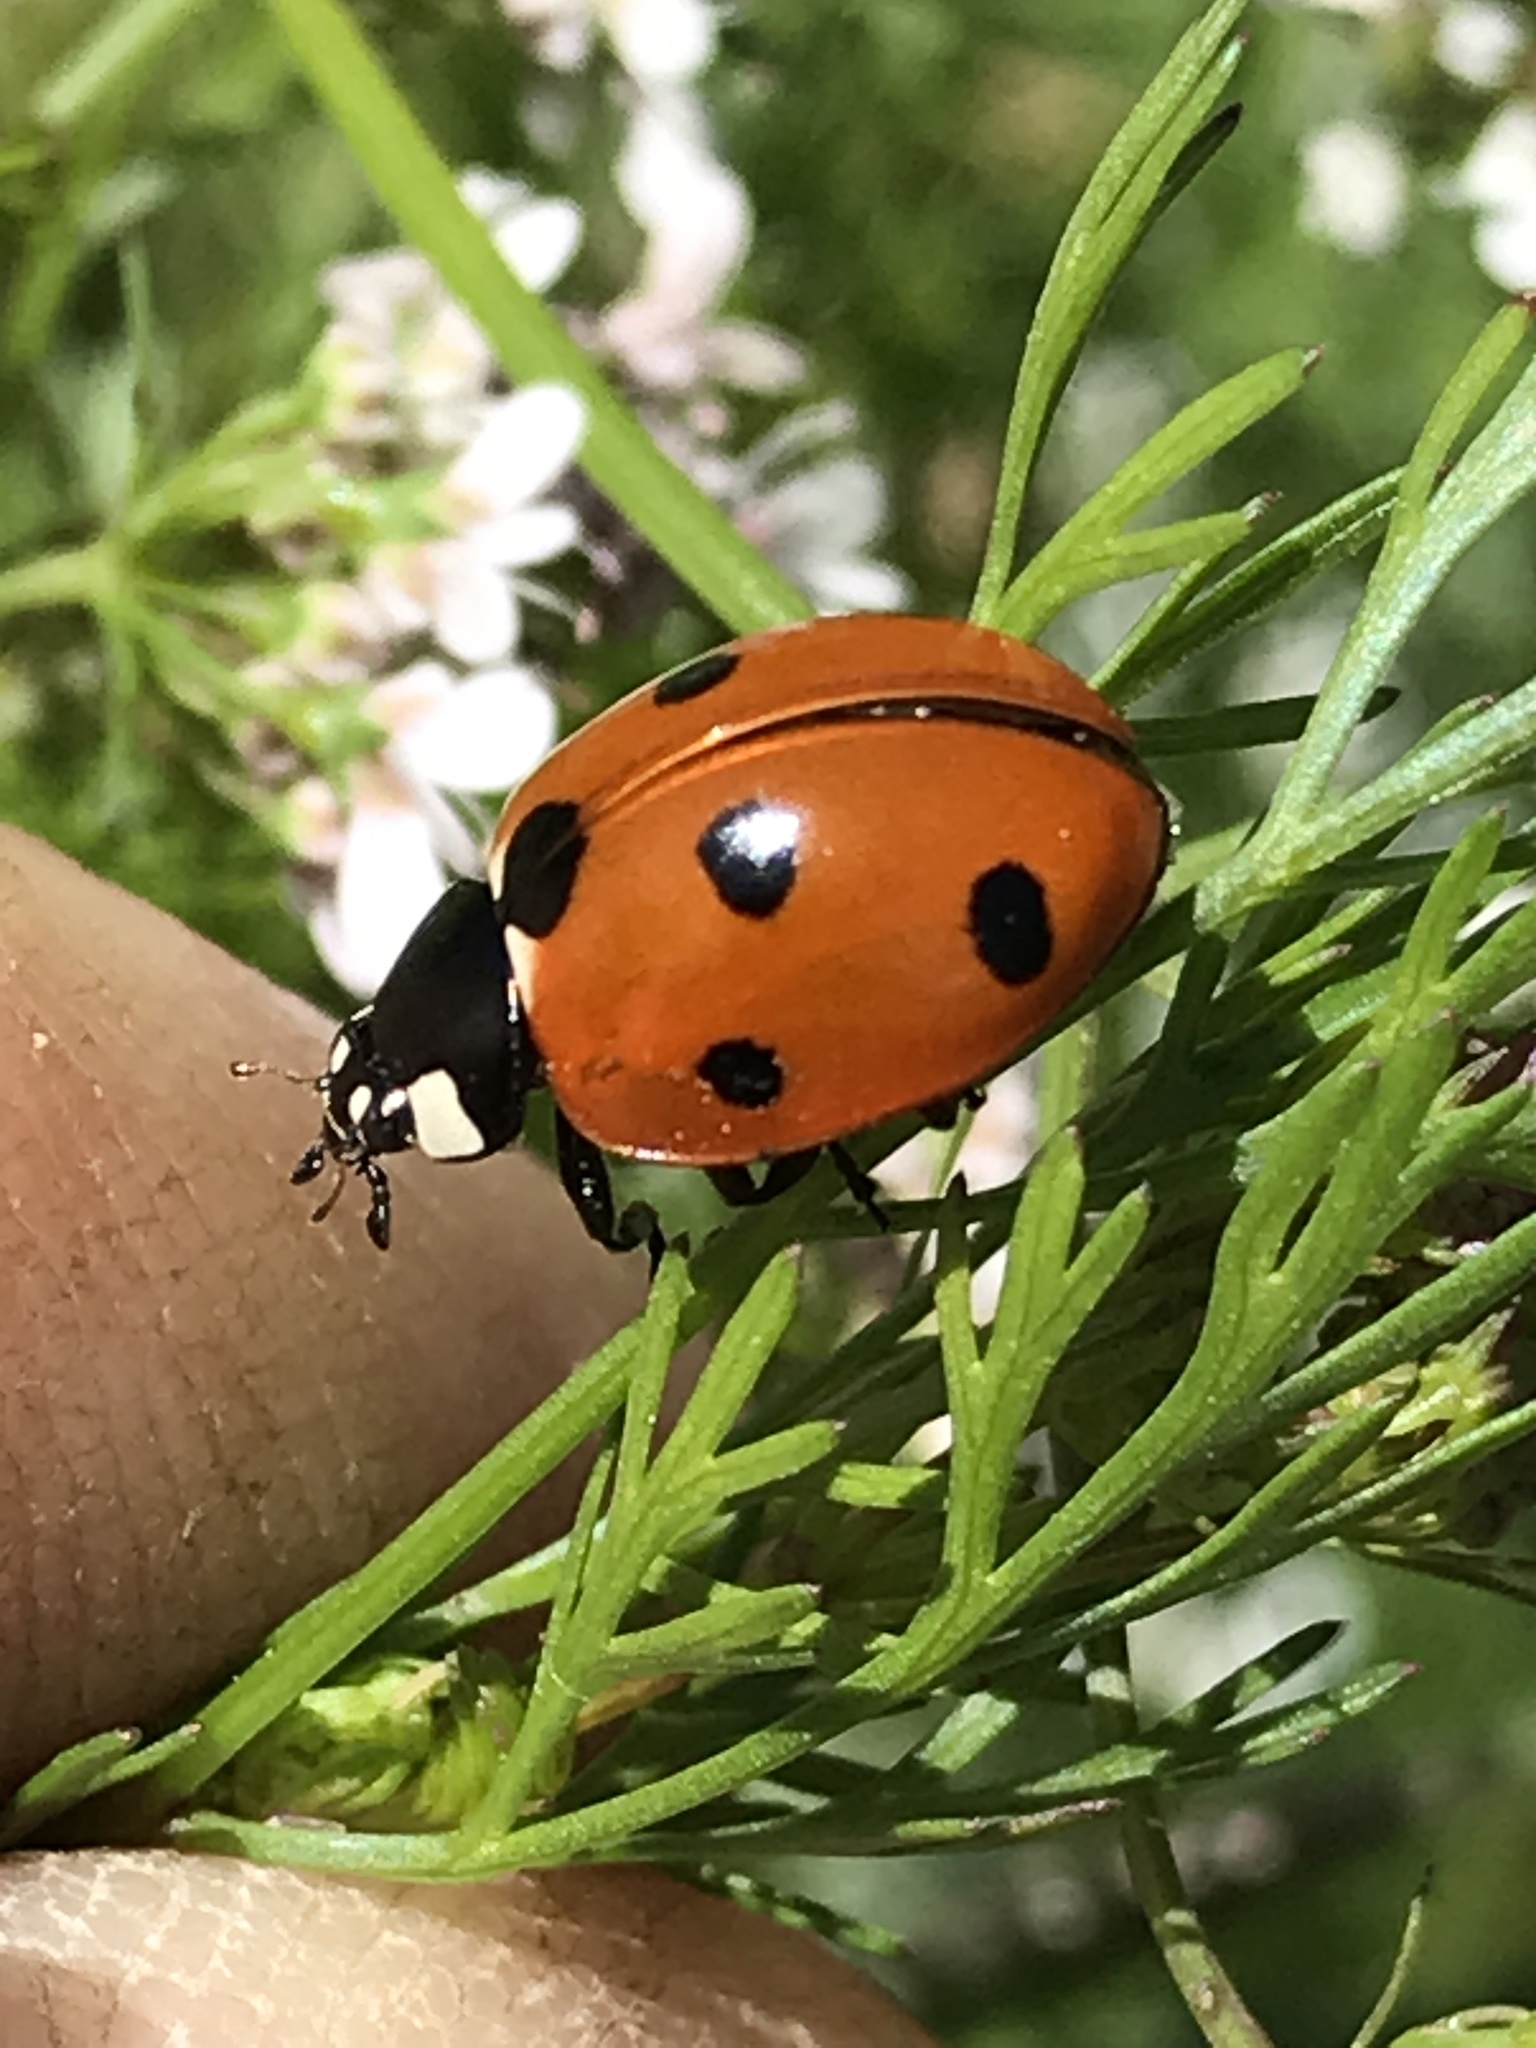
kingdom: Animalia
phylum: Arthropoda
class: Insecta
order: Coleoptera
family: Coccinellidae
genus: Coccinella
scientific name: Coccinella septempunctata
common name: Sevenspotted lady beetle
